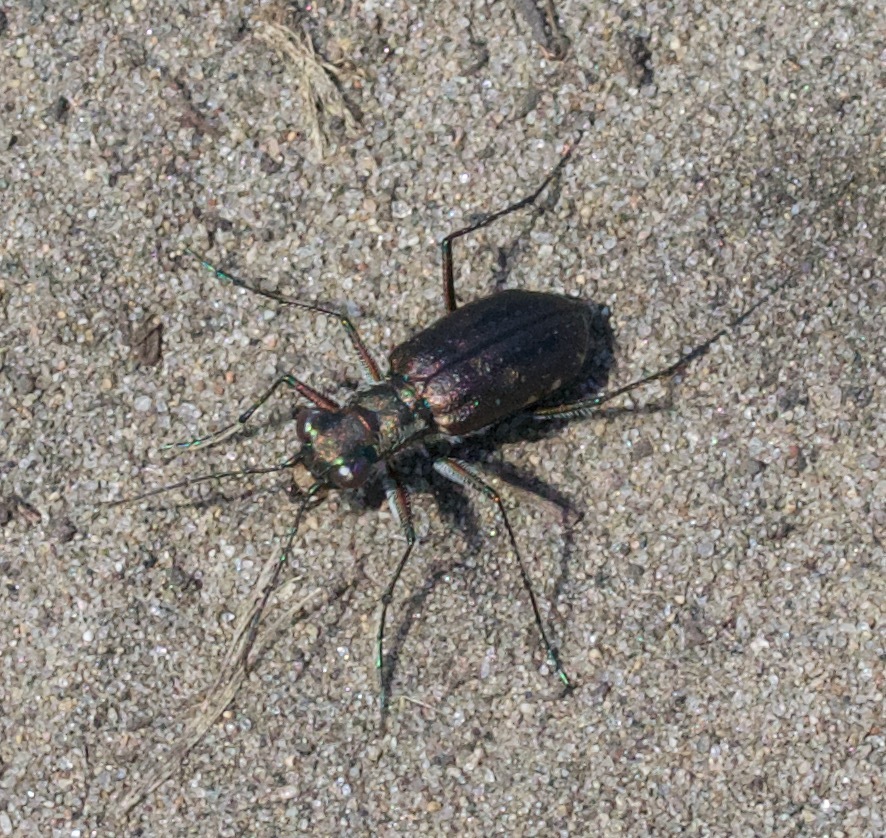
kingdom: Animalia
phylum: Arthropoda
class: Insecta
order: Coleoptera
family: Carabidae
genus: Cicindela
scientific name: Cicindela punctulata
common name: Punctured tiger beetle
